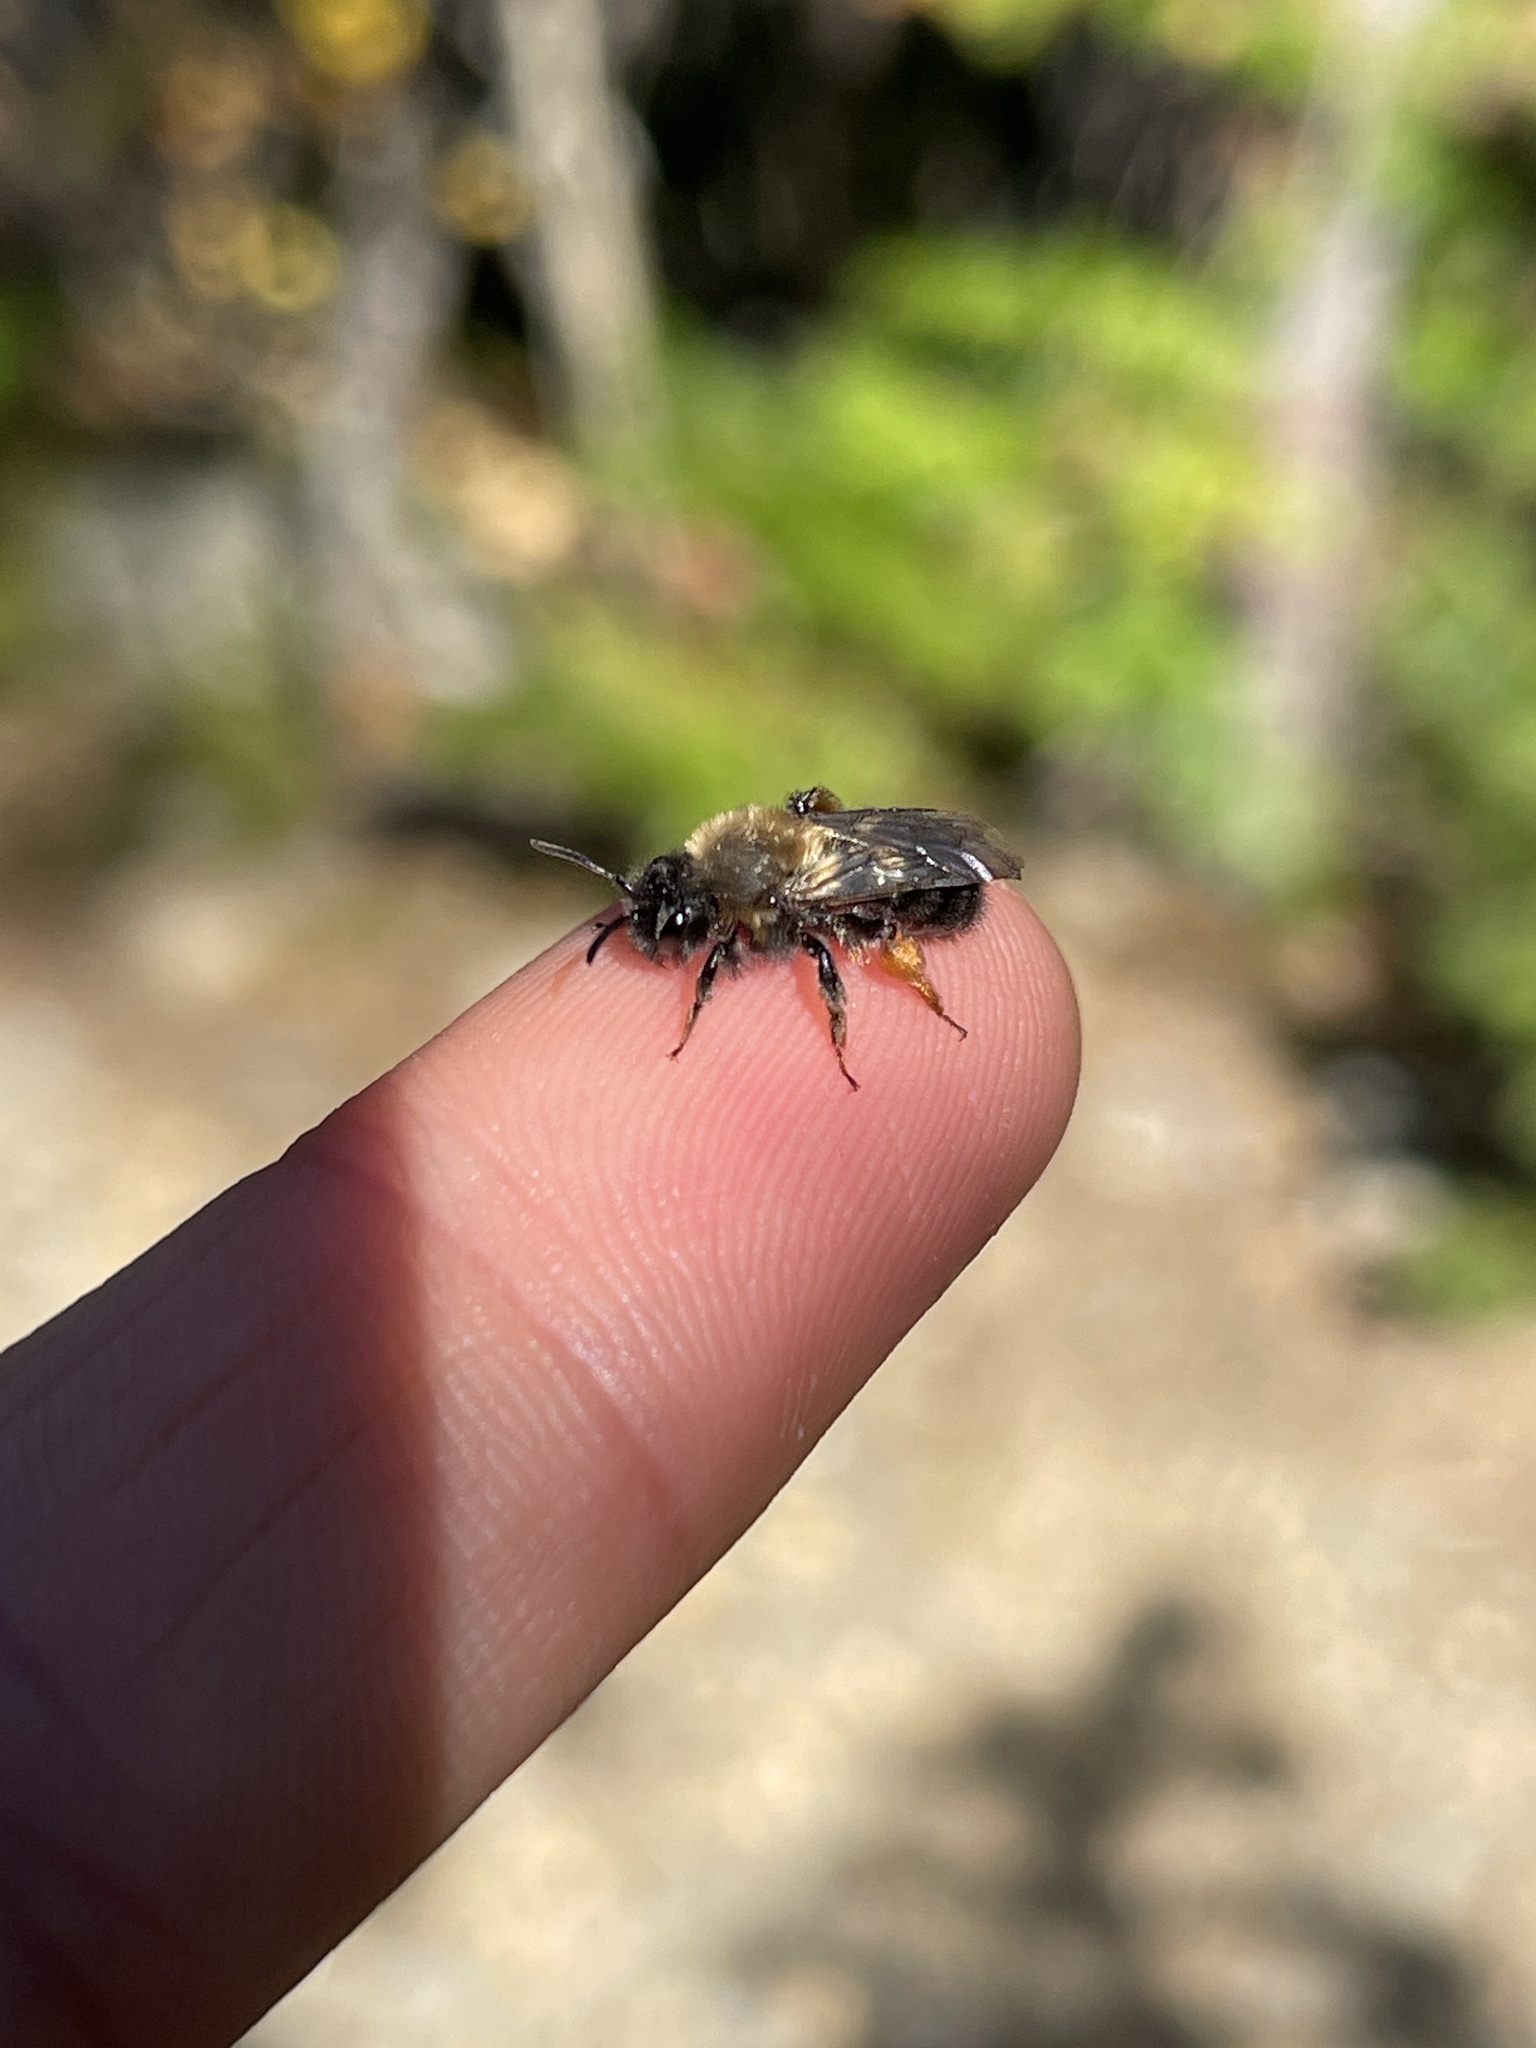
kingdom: Animalia
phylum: Arthropoda
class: Insecta
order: Hymenoptera
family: Andrenidae
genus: Andrena
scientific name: Andrena clarkella
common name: Clarke's mining bee
